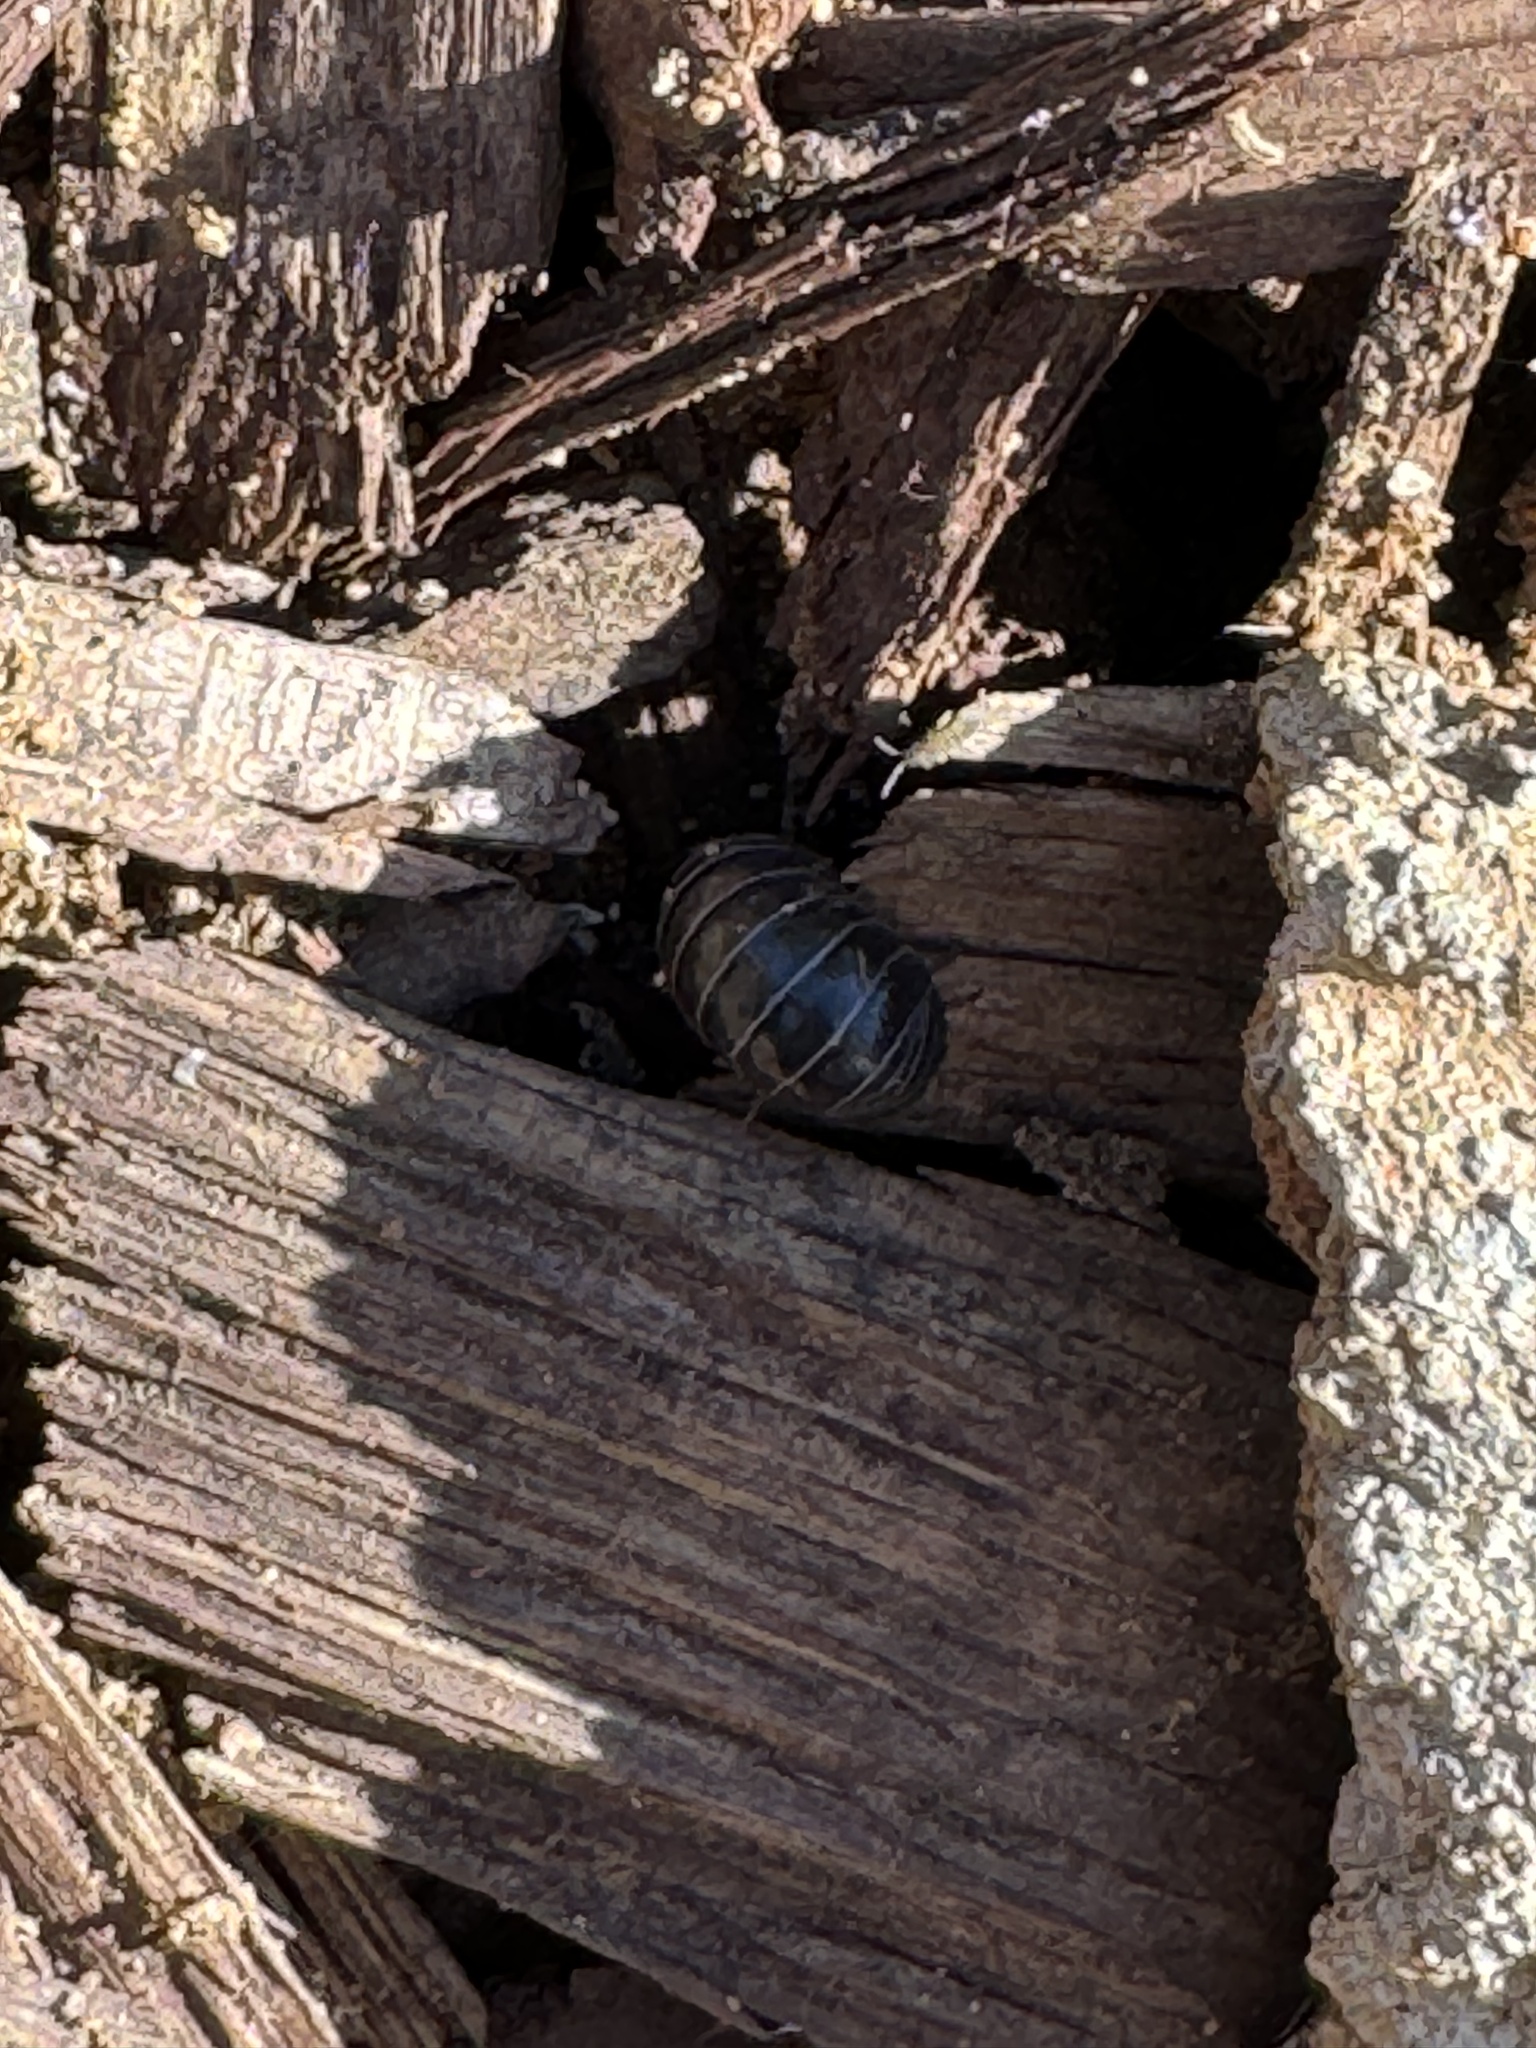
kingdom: Animalia
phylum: Arthropoda
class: Malacostraca
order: Isopoda
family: Armadillidiidae
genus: Armadillidium
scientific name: Armadillidium vulgare
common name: Common pill woodlouse
